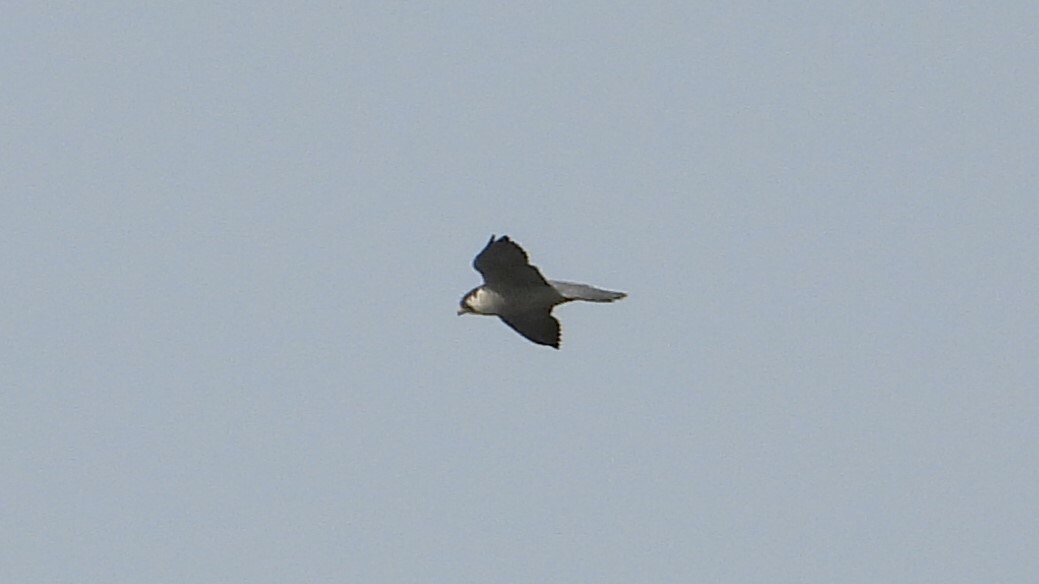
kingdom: Animalia
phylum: Chordata
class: Aves
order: Falconiformes
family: Falconidae
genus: Falco
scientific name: Falco peregrinus
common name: Peregrine falcon
